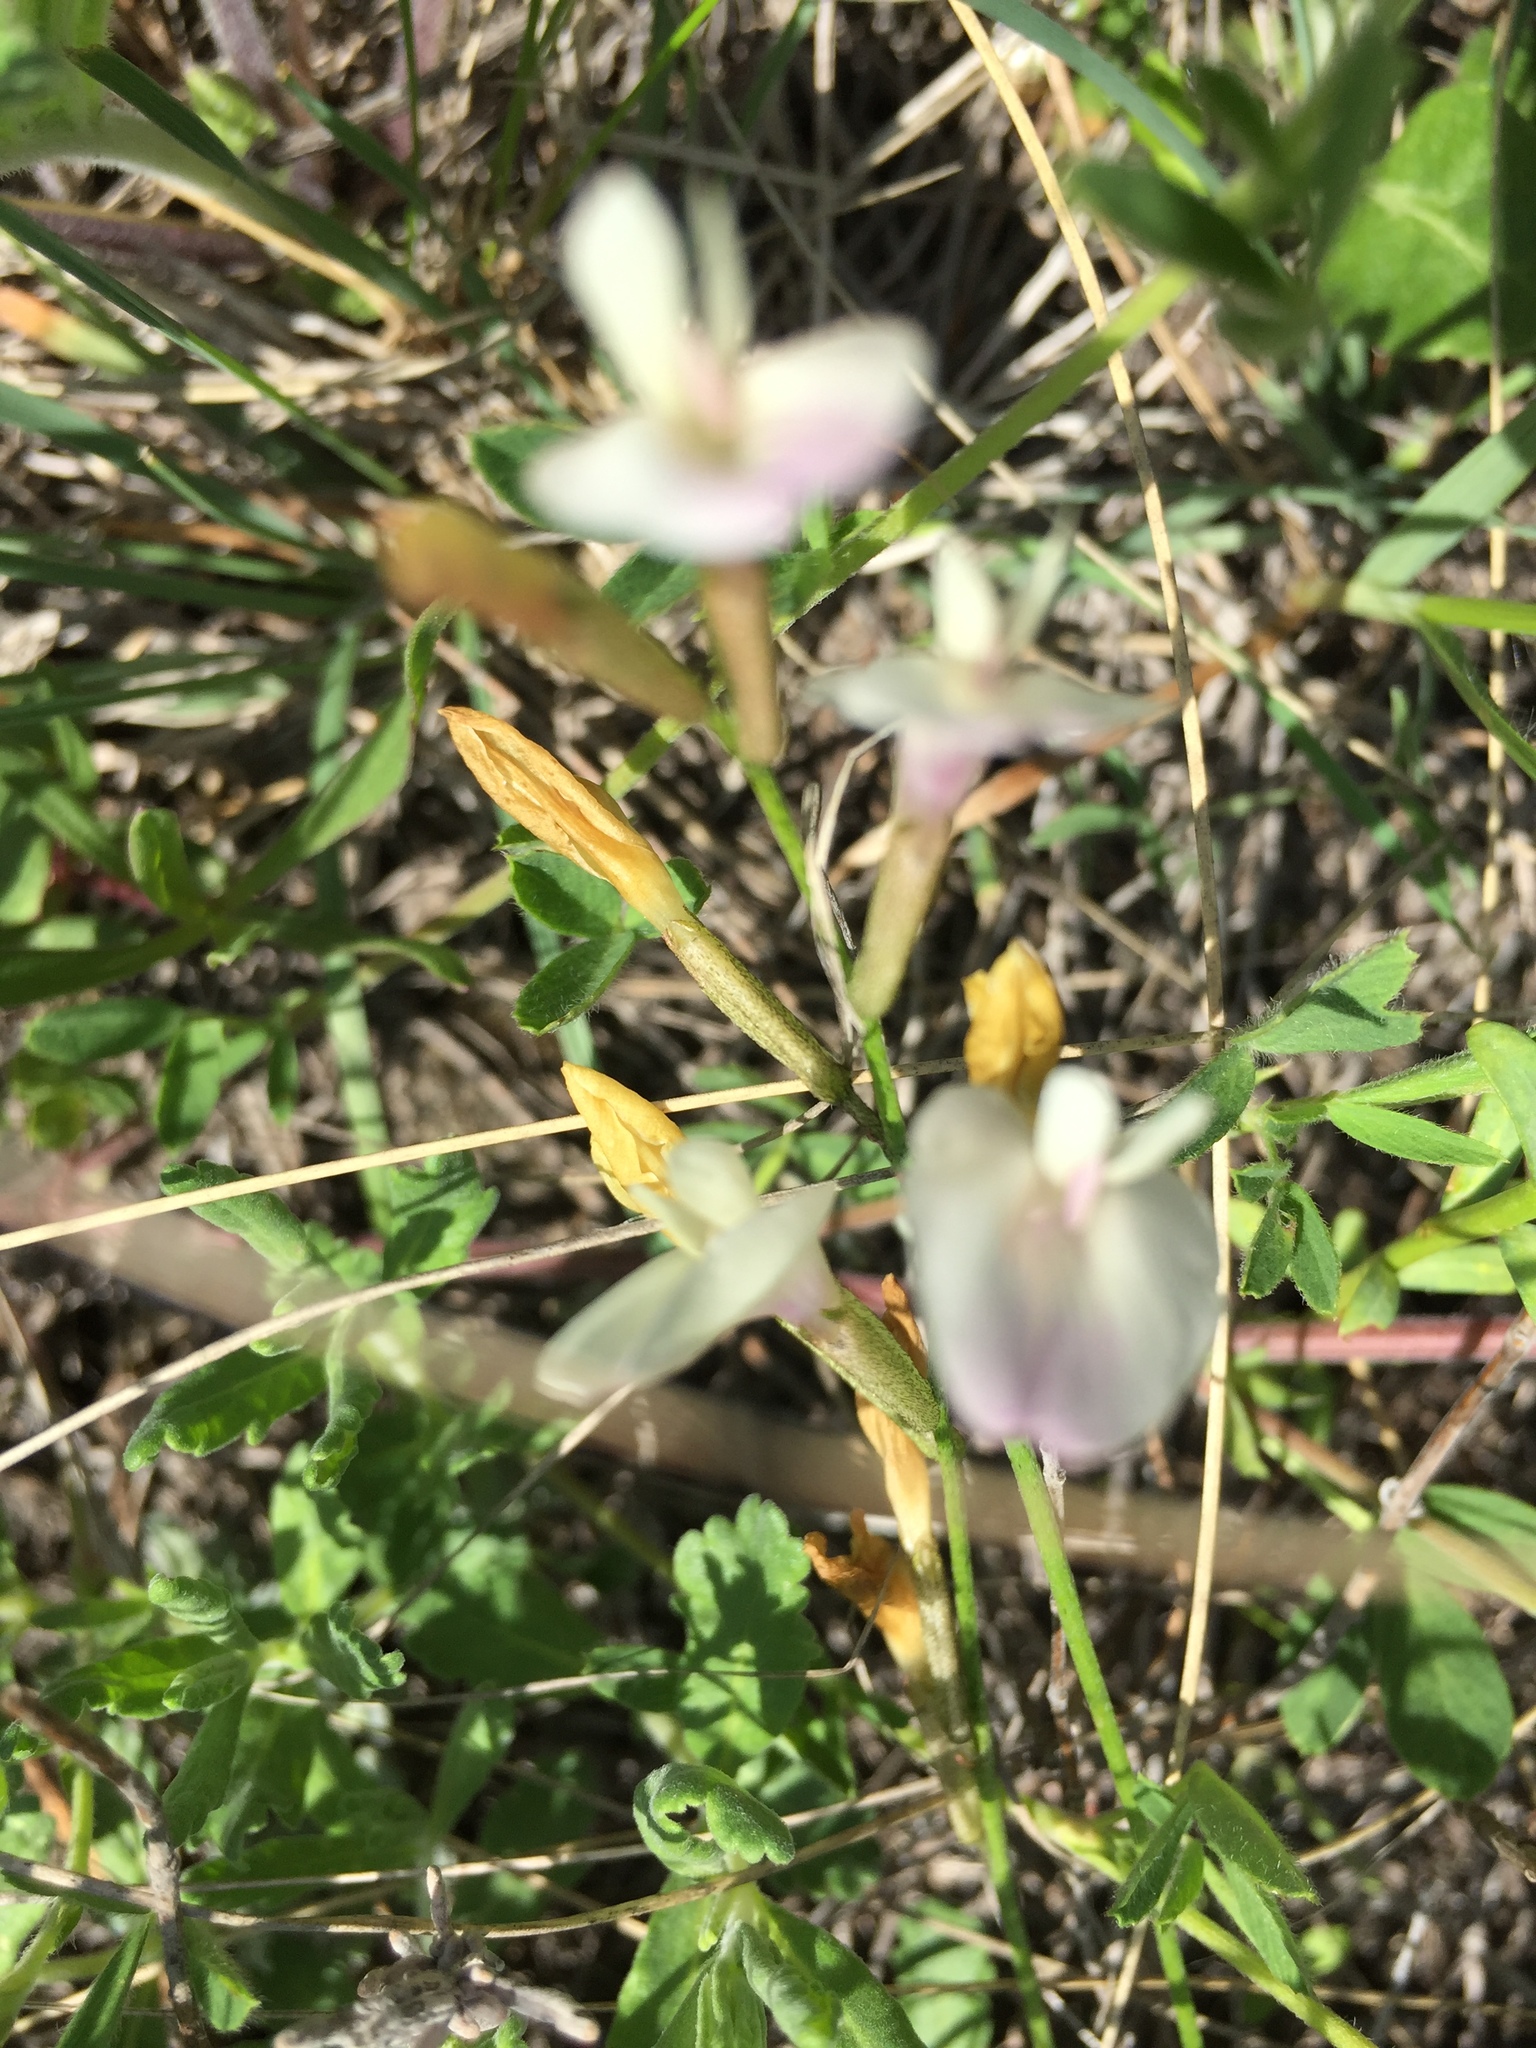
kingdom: Plantae
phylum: Tracheophyta
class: Magnoliopsida
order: Fabales
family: Fabaceae
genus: Astragalus
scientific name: Astragalus ucrainicus
